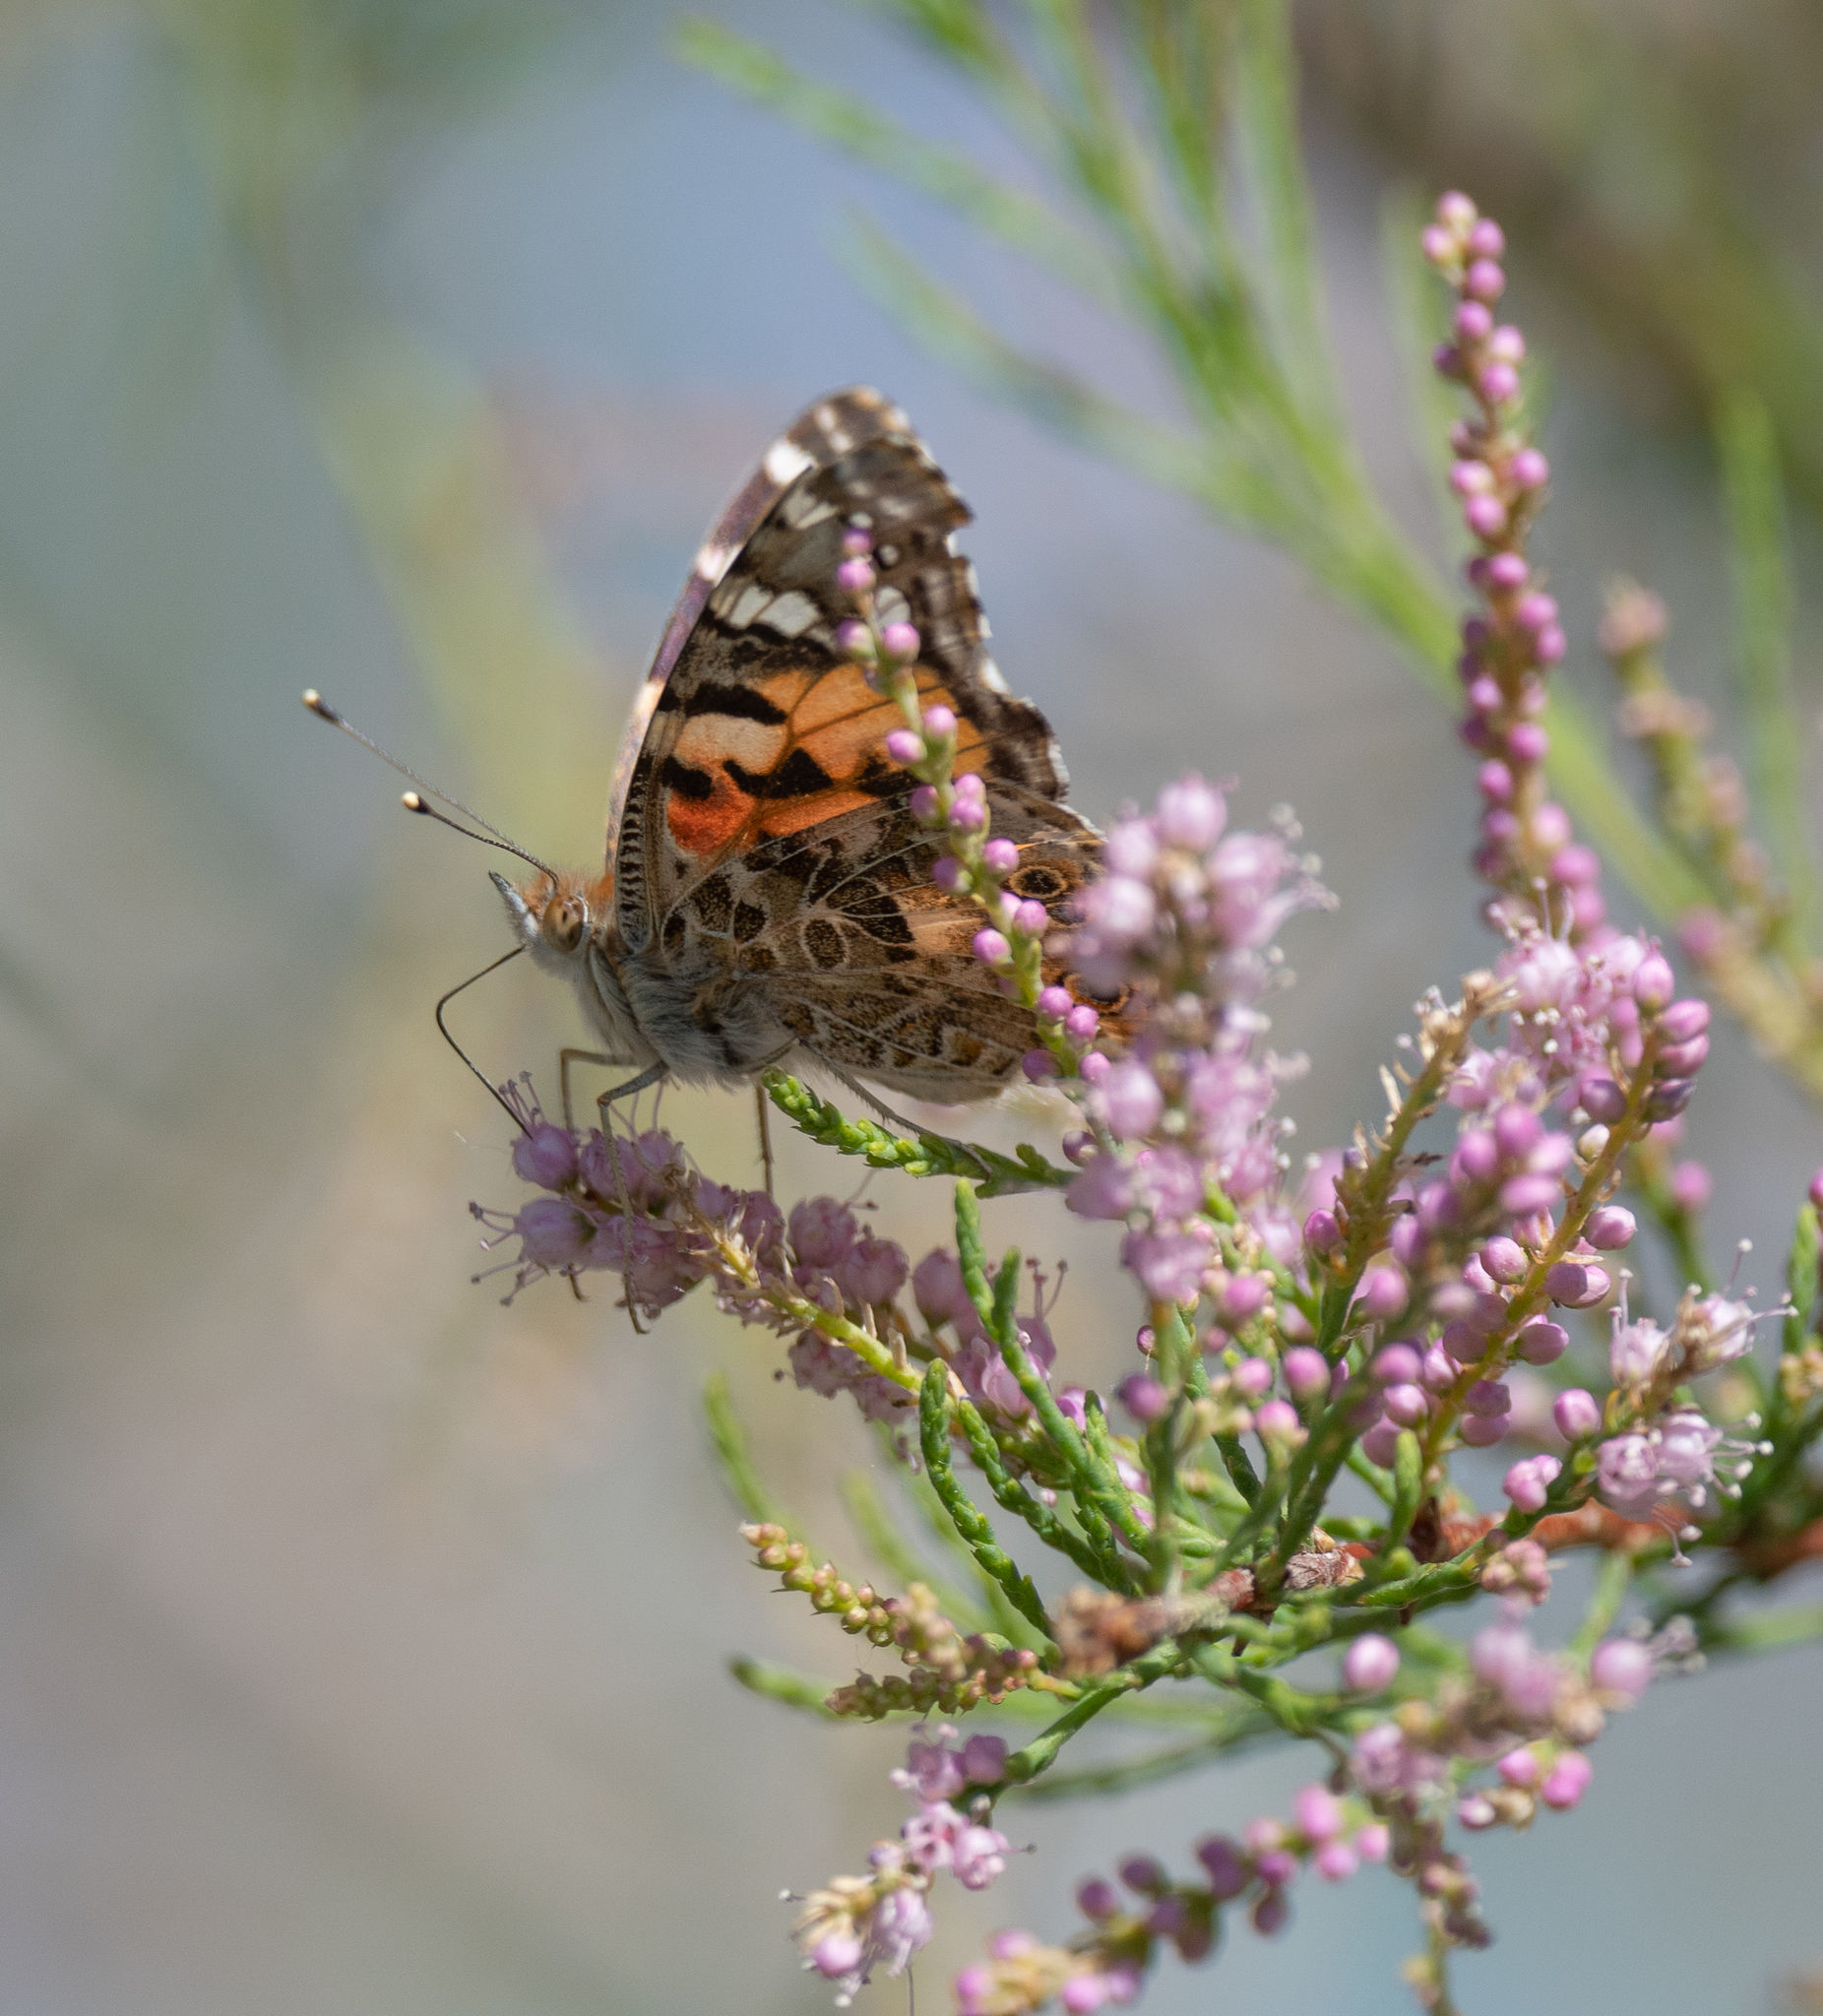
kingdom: Animalia
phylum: Arthropoda
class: Insecta
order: Lepidoptera
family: Nymphalidae
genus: Vanessa
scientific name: Vanessa cardui
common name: Painted lady
